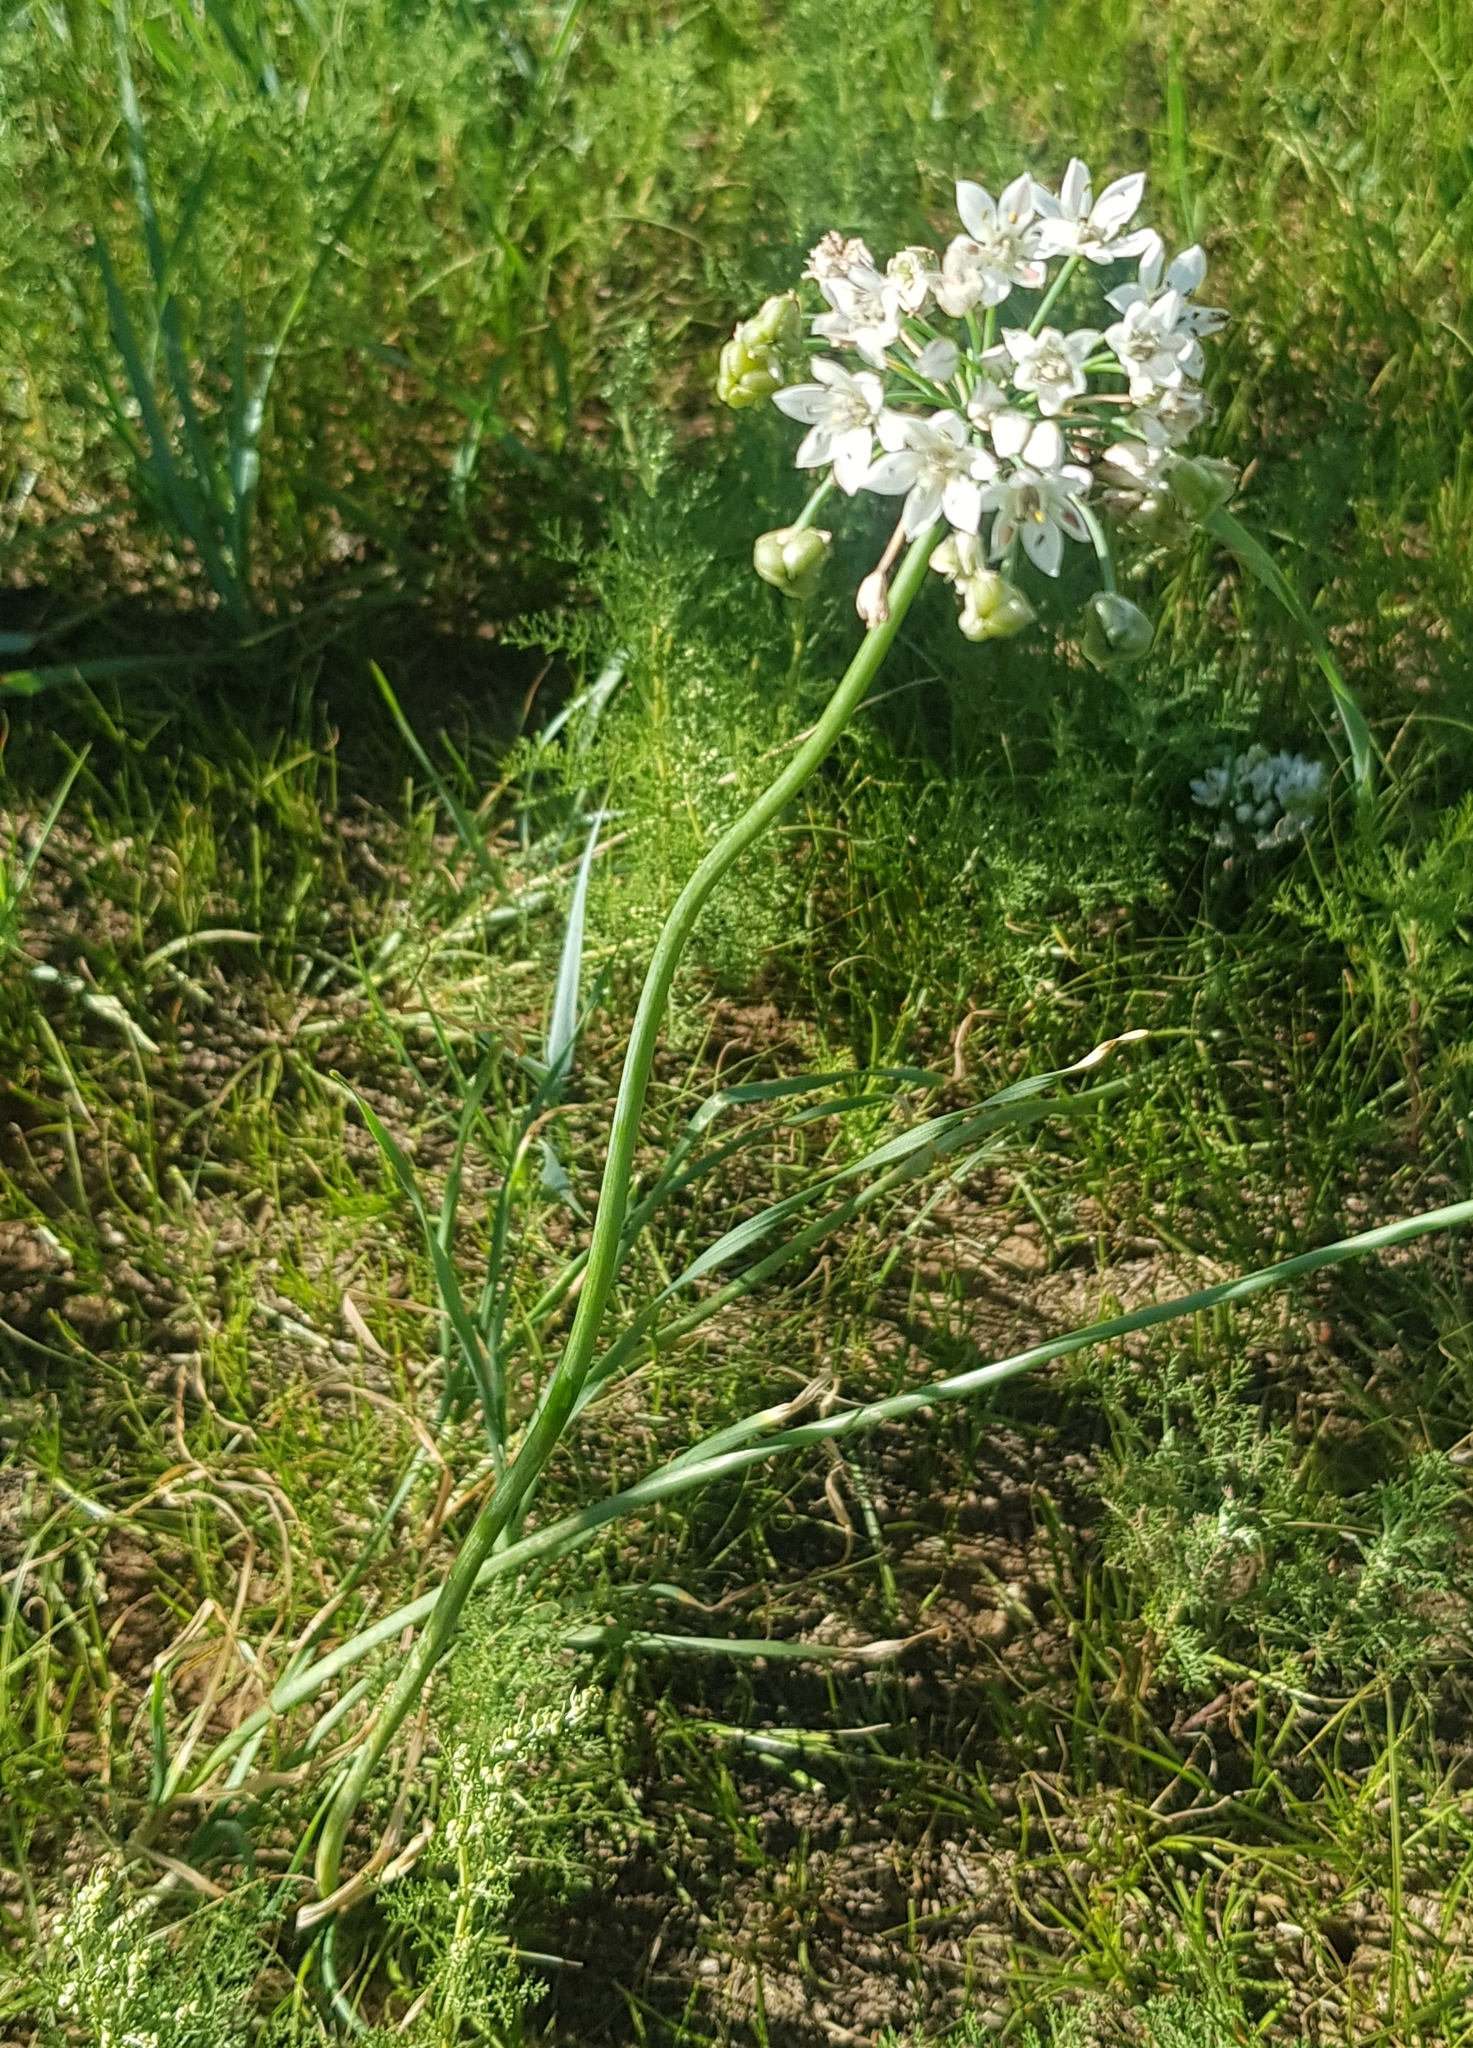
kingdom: Plantae
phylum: Tracheophyta
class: Liliopsida
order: Asparagales
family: Amaryllidaceae
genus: Allium
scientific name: Allium ramosum
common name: Fragrant garlic
